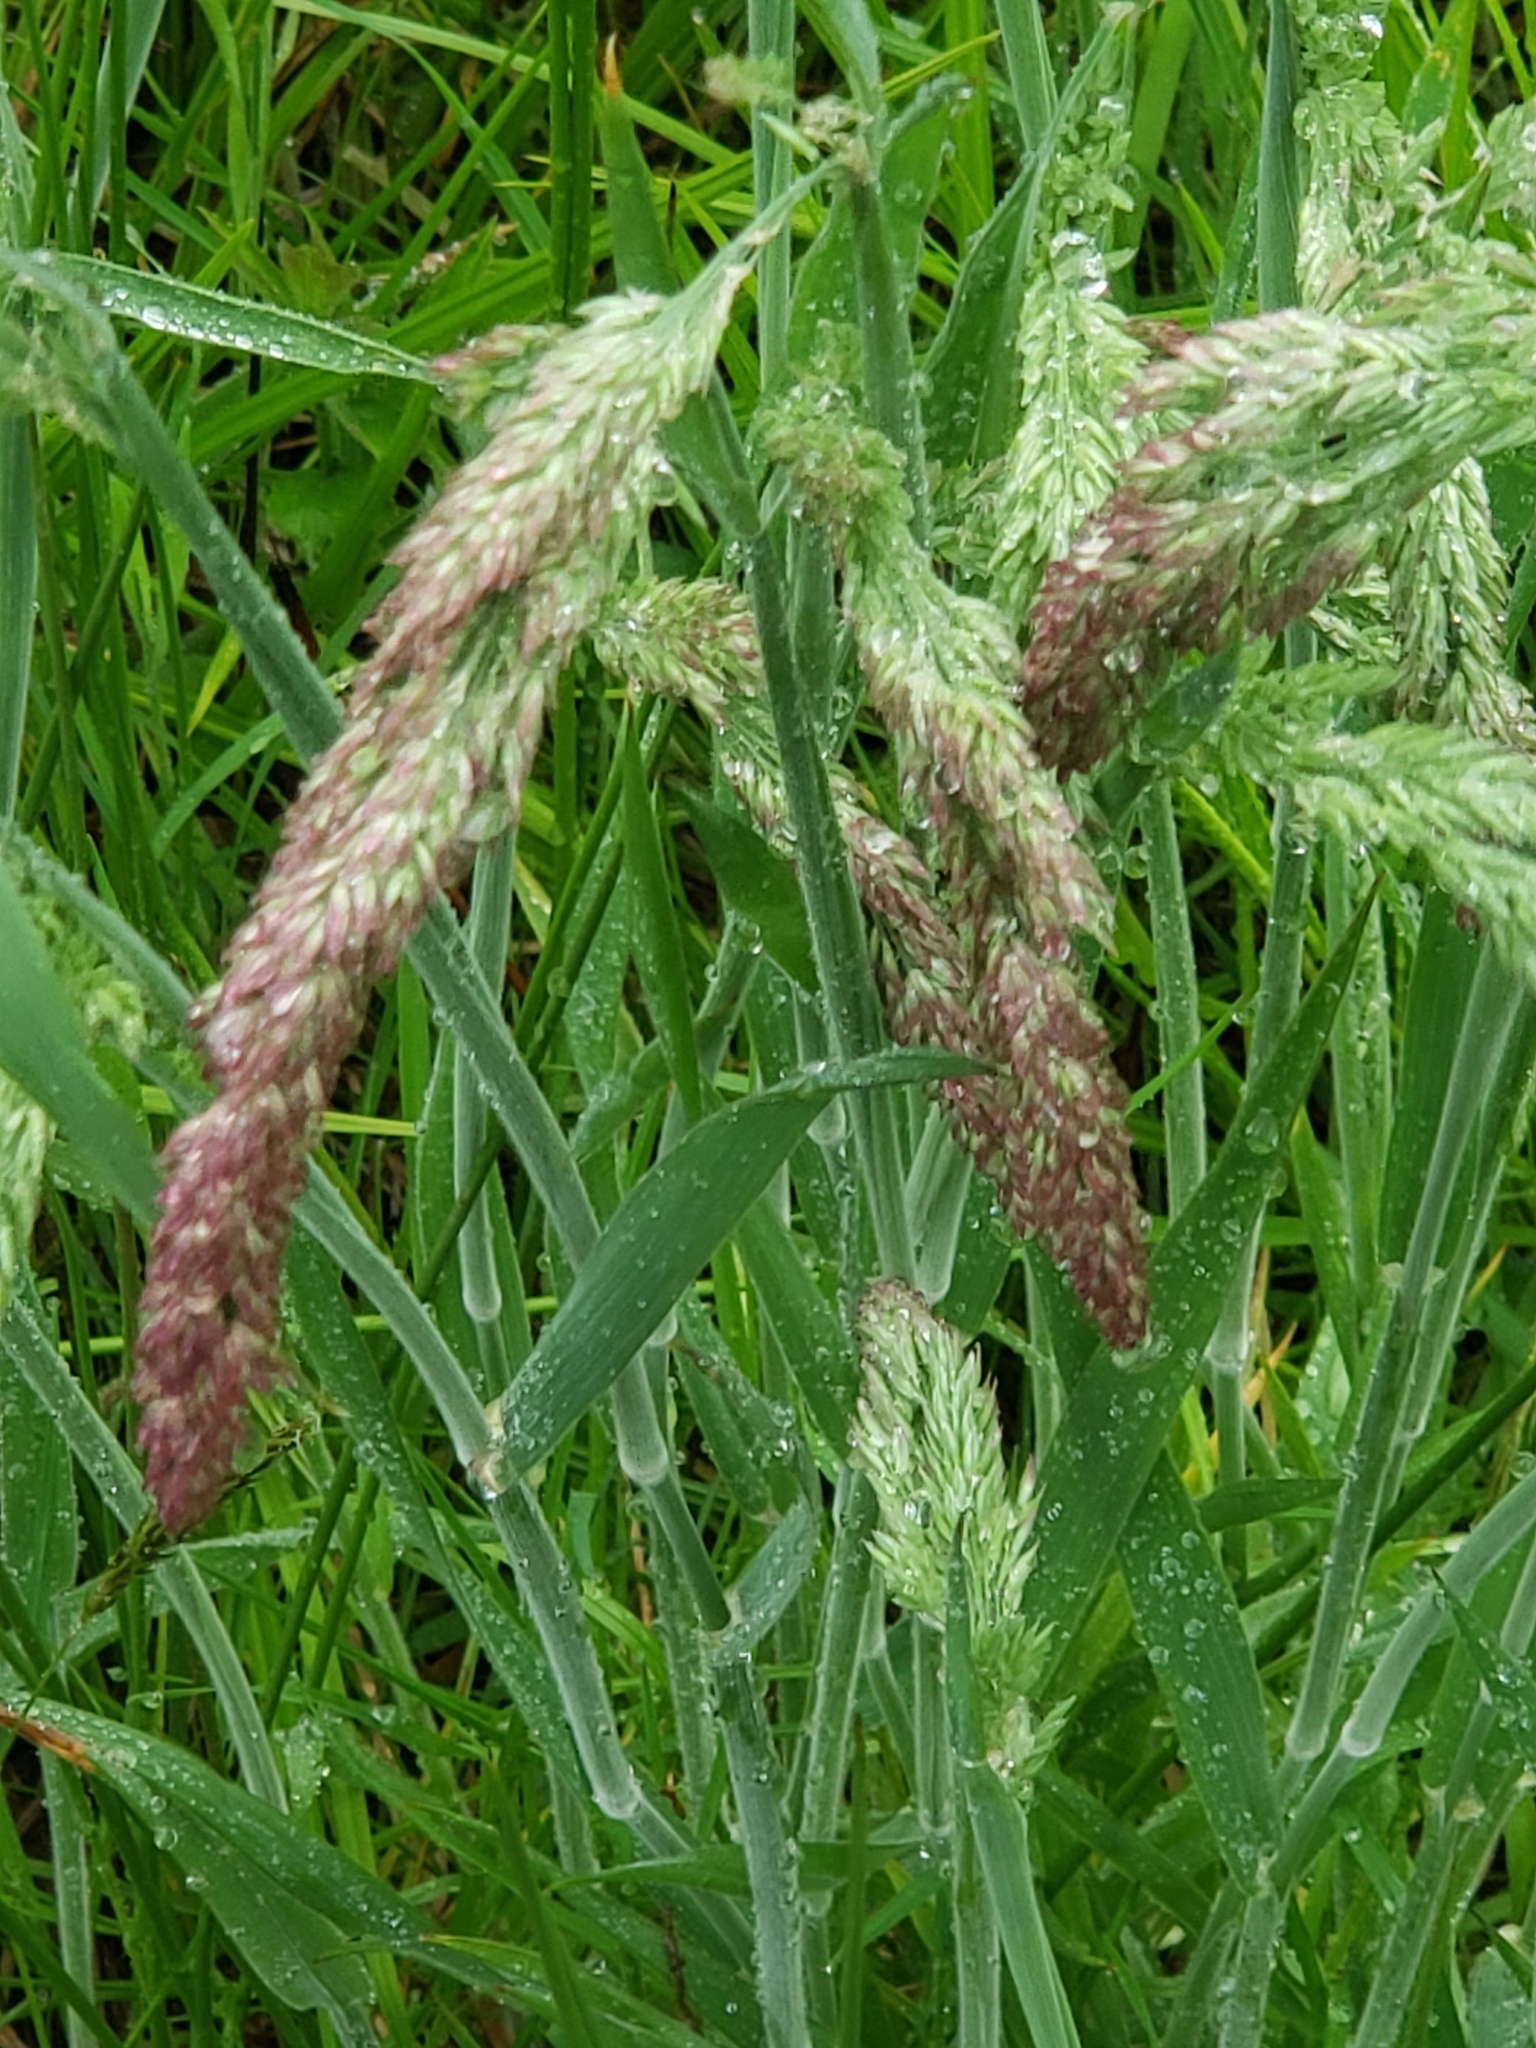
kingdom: Plantae
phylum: Tracheophyta
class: Liliopsida
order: Poales
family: Poaceae
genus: Holcus
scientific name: Holcus lanatus
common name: Yorkshire-fog
